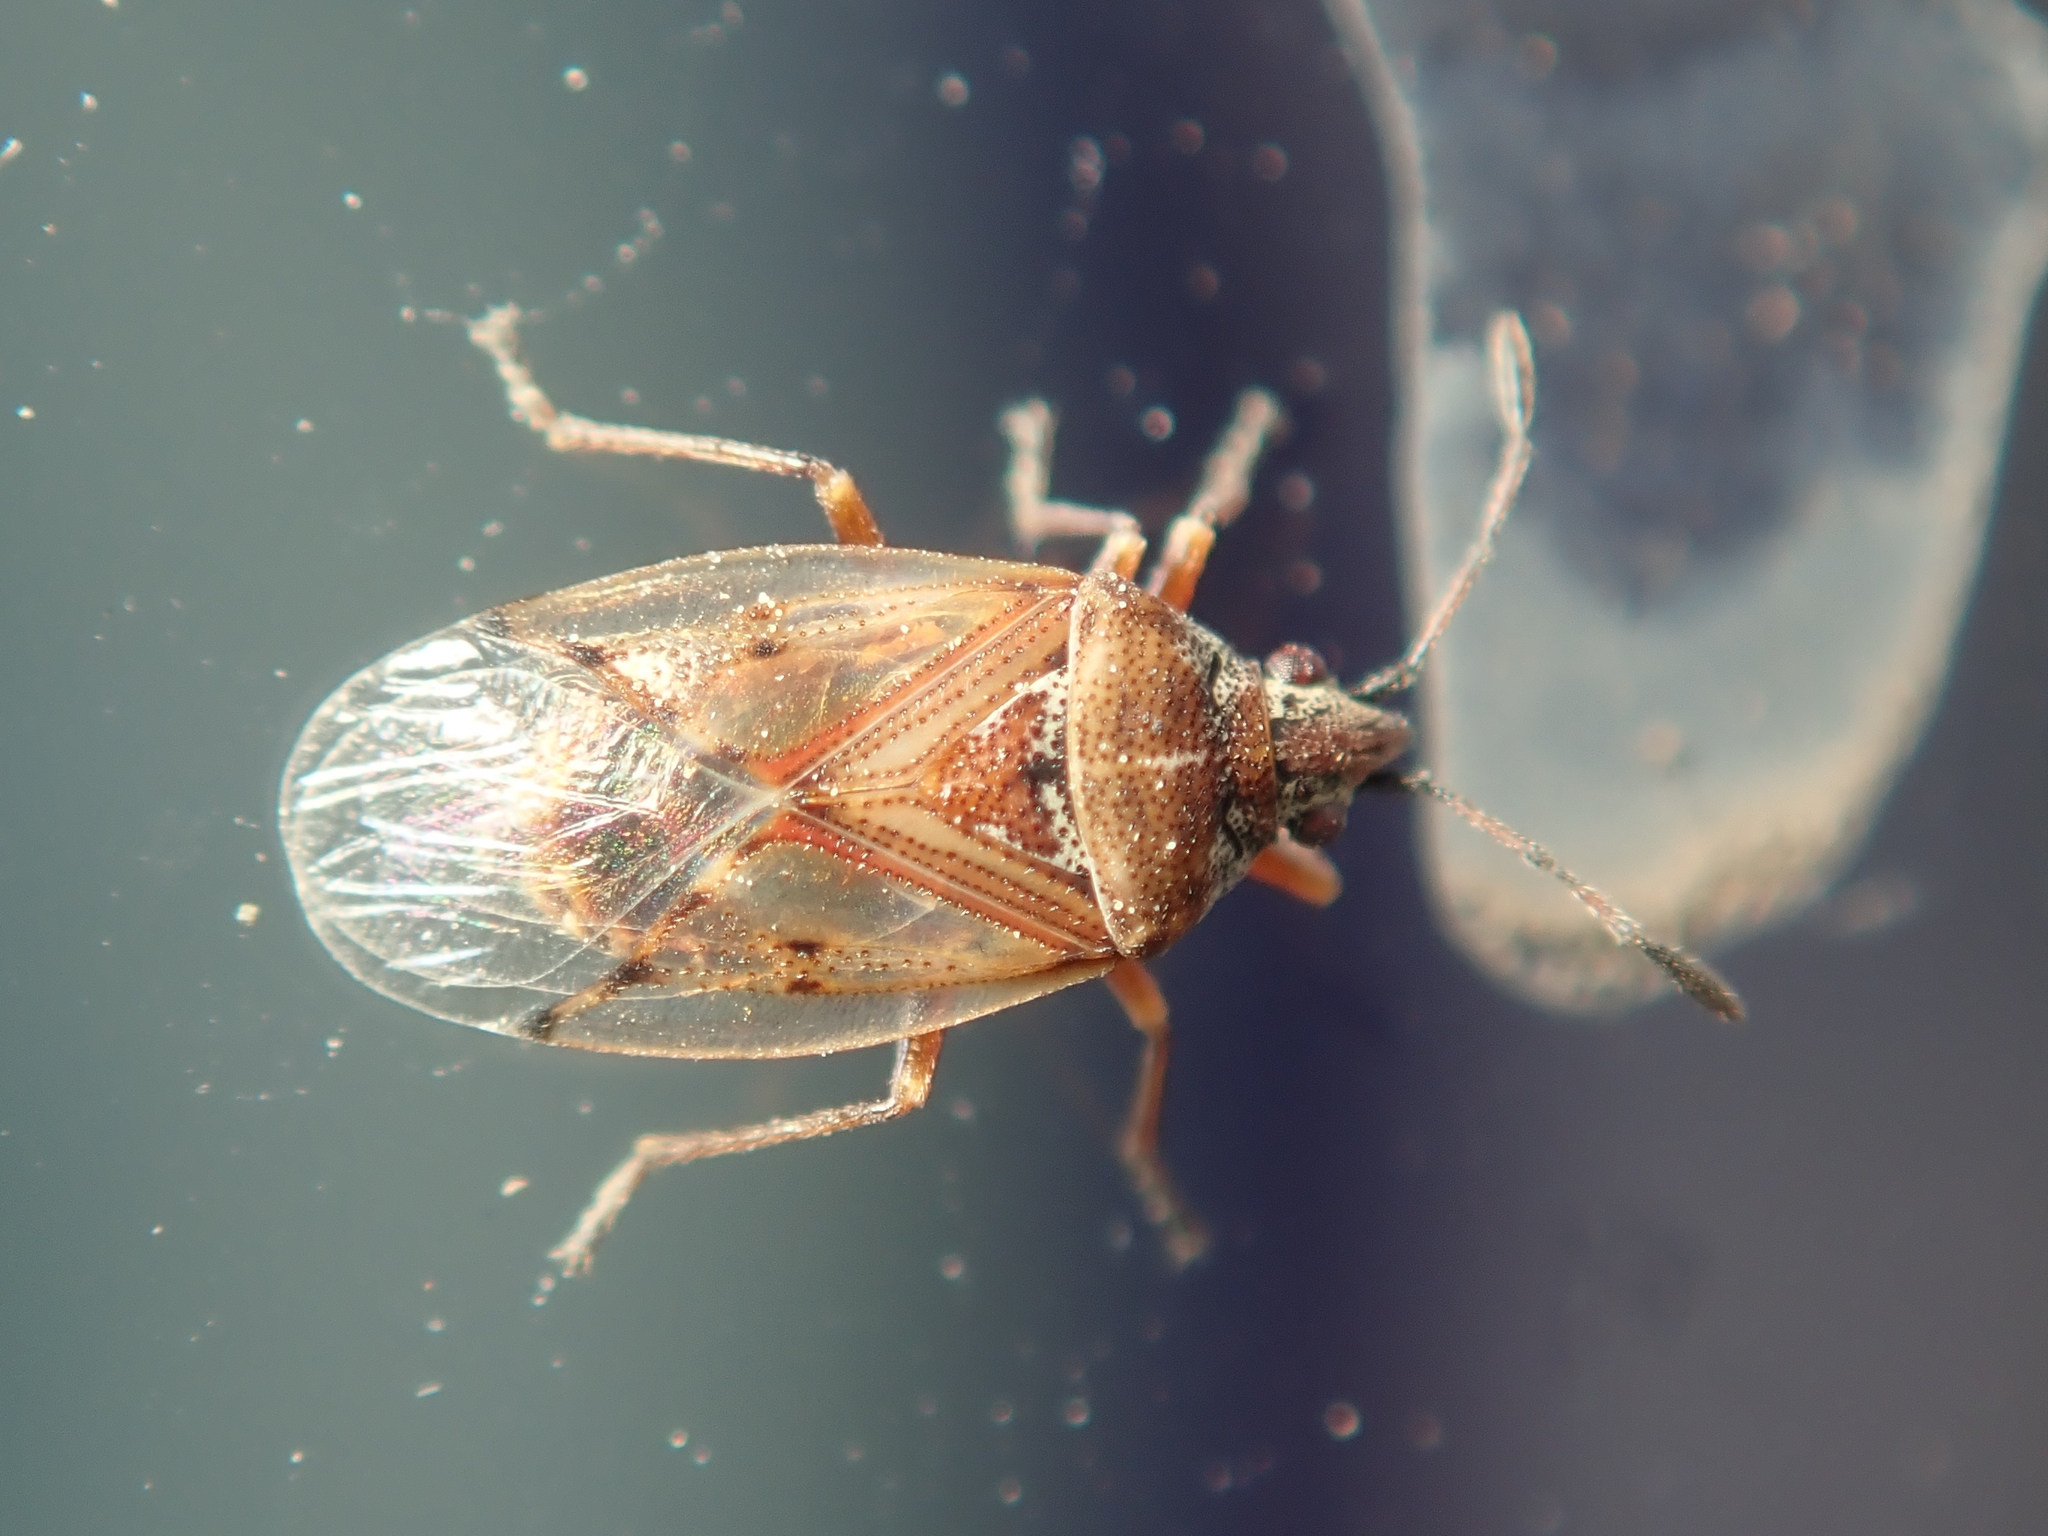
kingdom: Animalia
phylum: Arthropoda
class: Insecta
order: Hemiptera
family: Lygaeidae
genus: Kleidocerys
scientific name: Kleidocerys resedae
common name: Birch catkin bug
